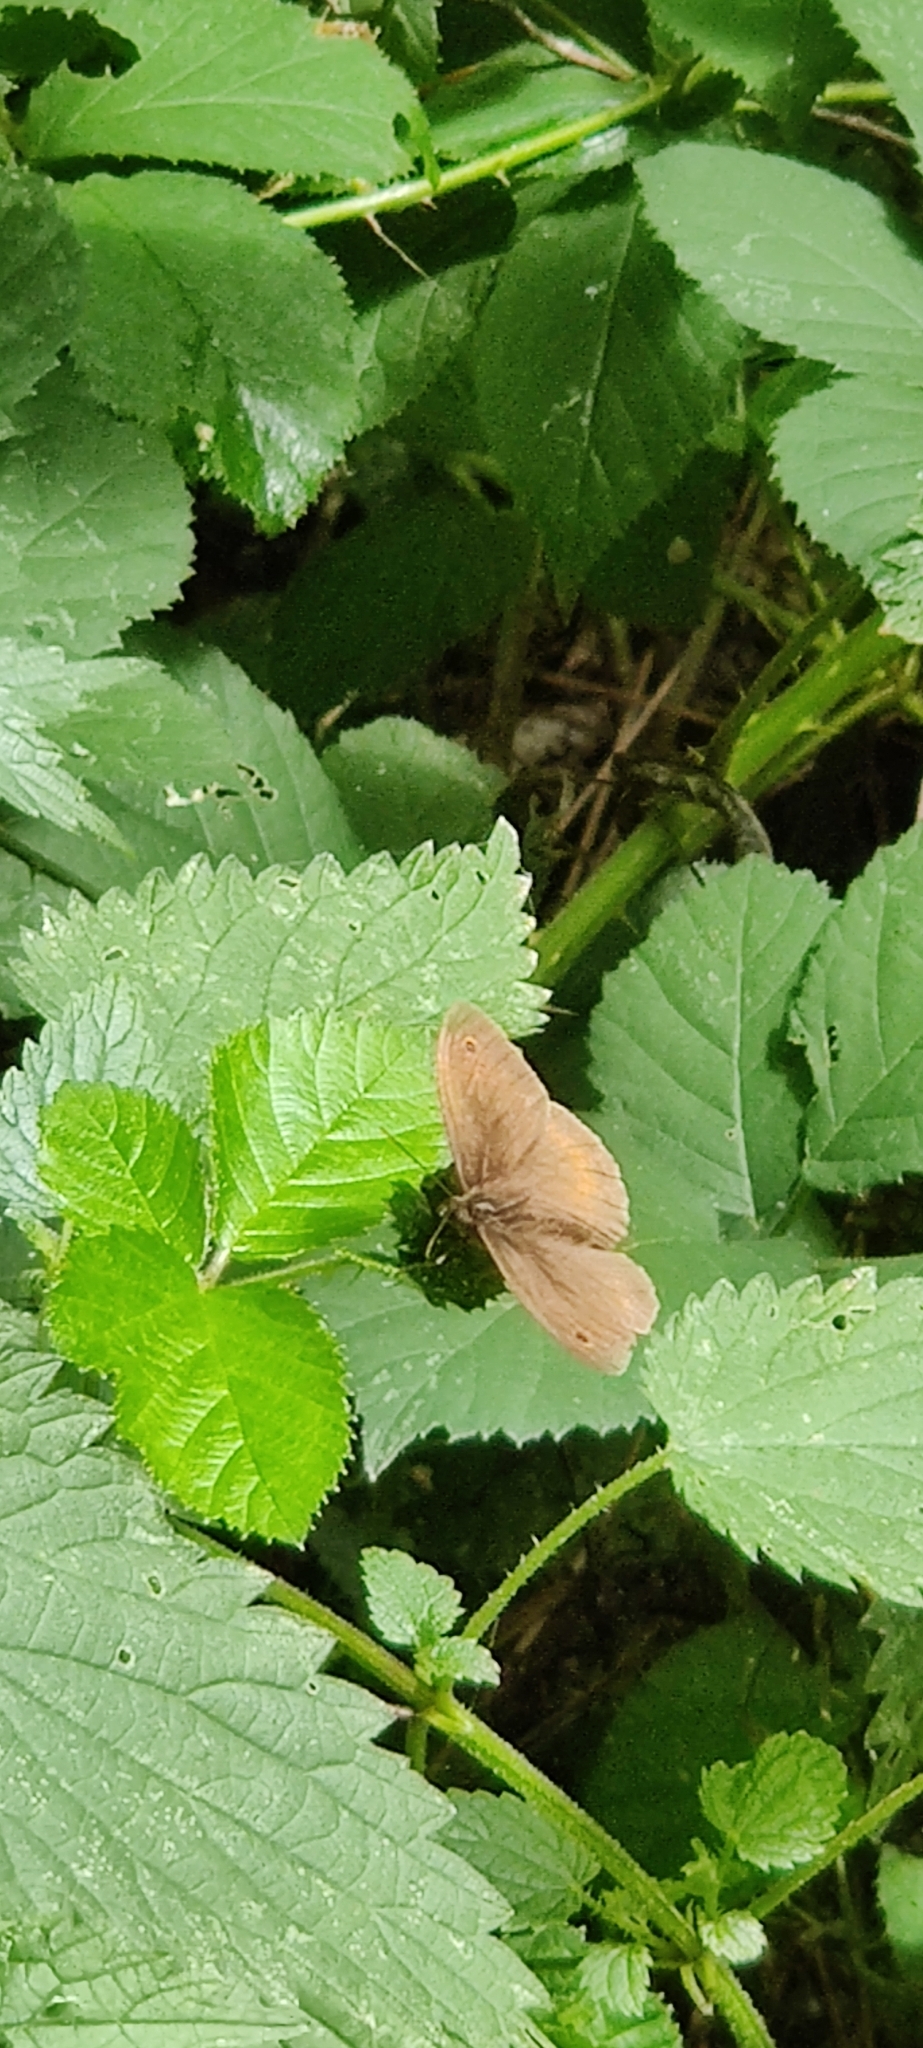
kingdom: Animalia
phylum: Arthropoda
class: Insecta
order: Lepidoptera
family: Nymphalidae
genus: Maniola
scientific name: Maniola jurtina
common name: Meadow brown
